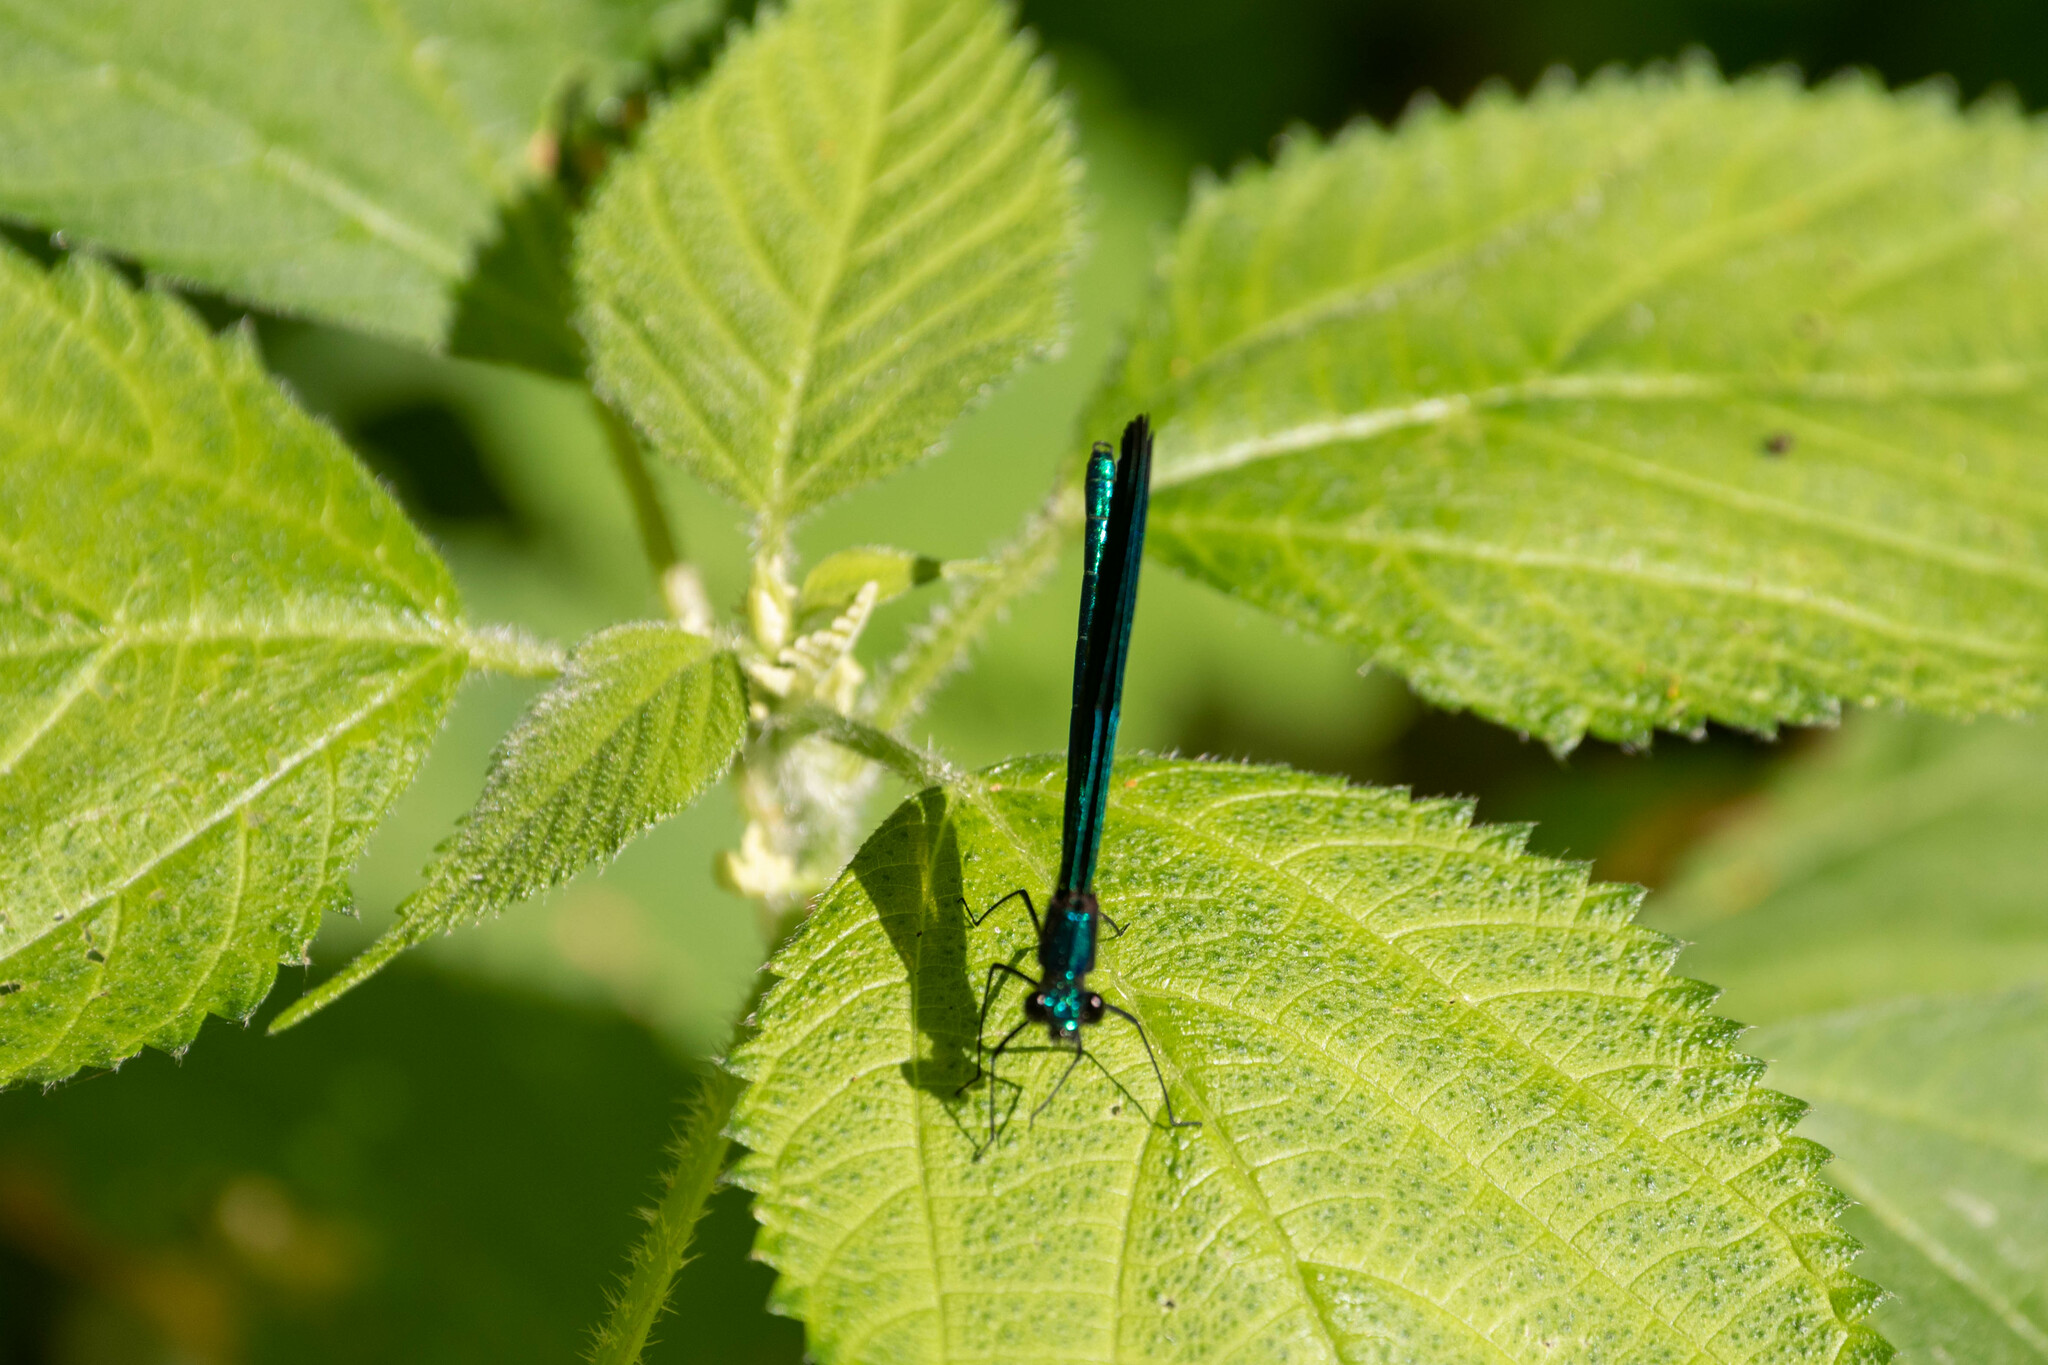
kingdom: Animalia
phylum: Arthropoda
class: Insecta
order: Odonata
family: Calopterygidae
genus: Calopteryx
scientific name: Calopteryx maculata
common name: Ebony jewelwing
